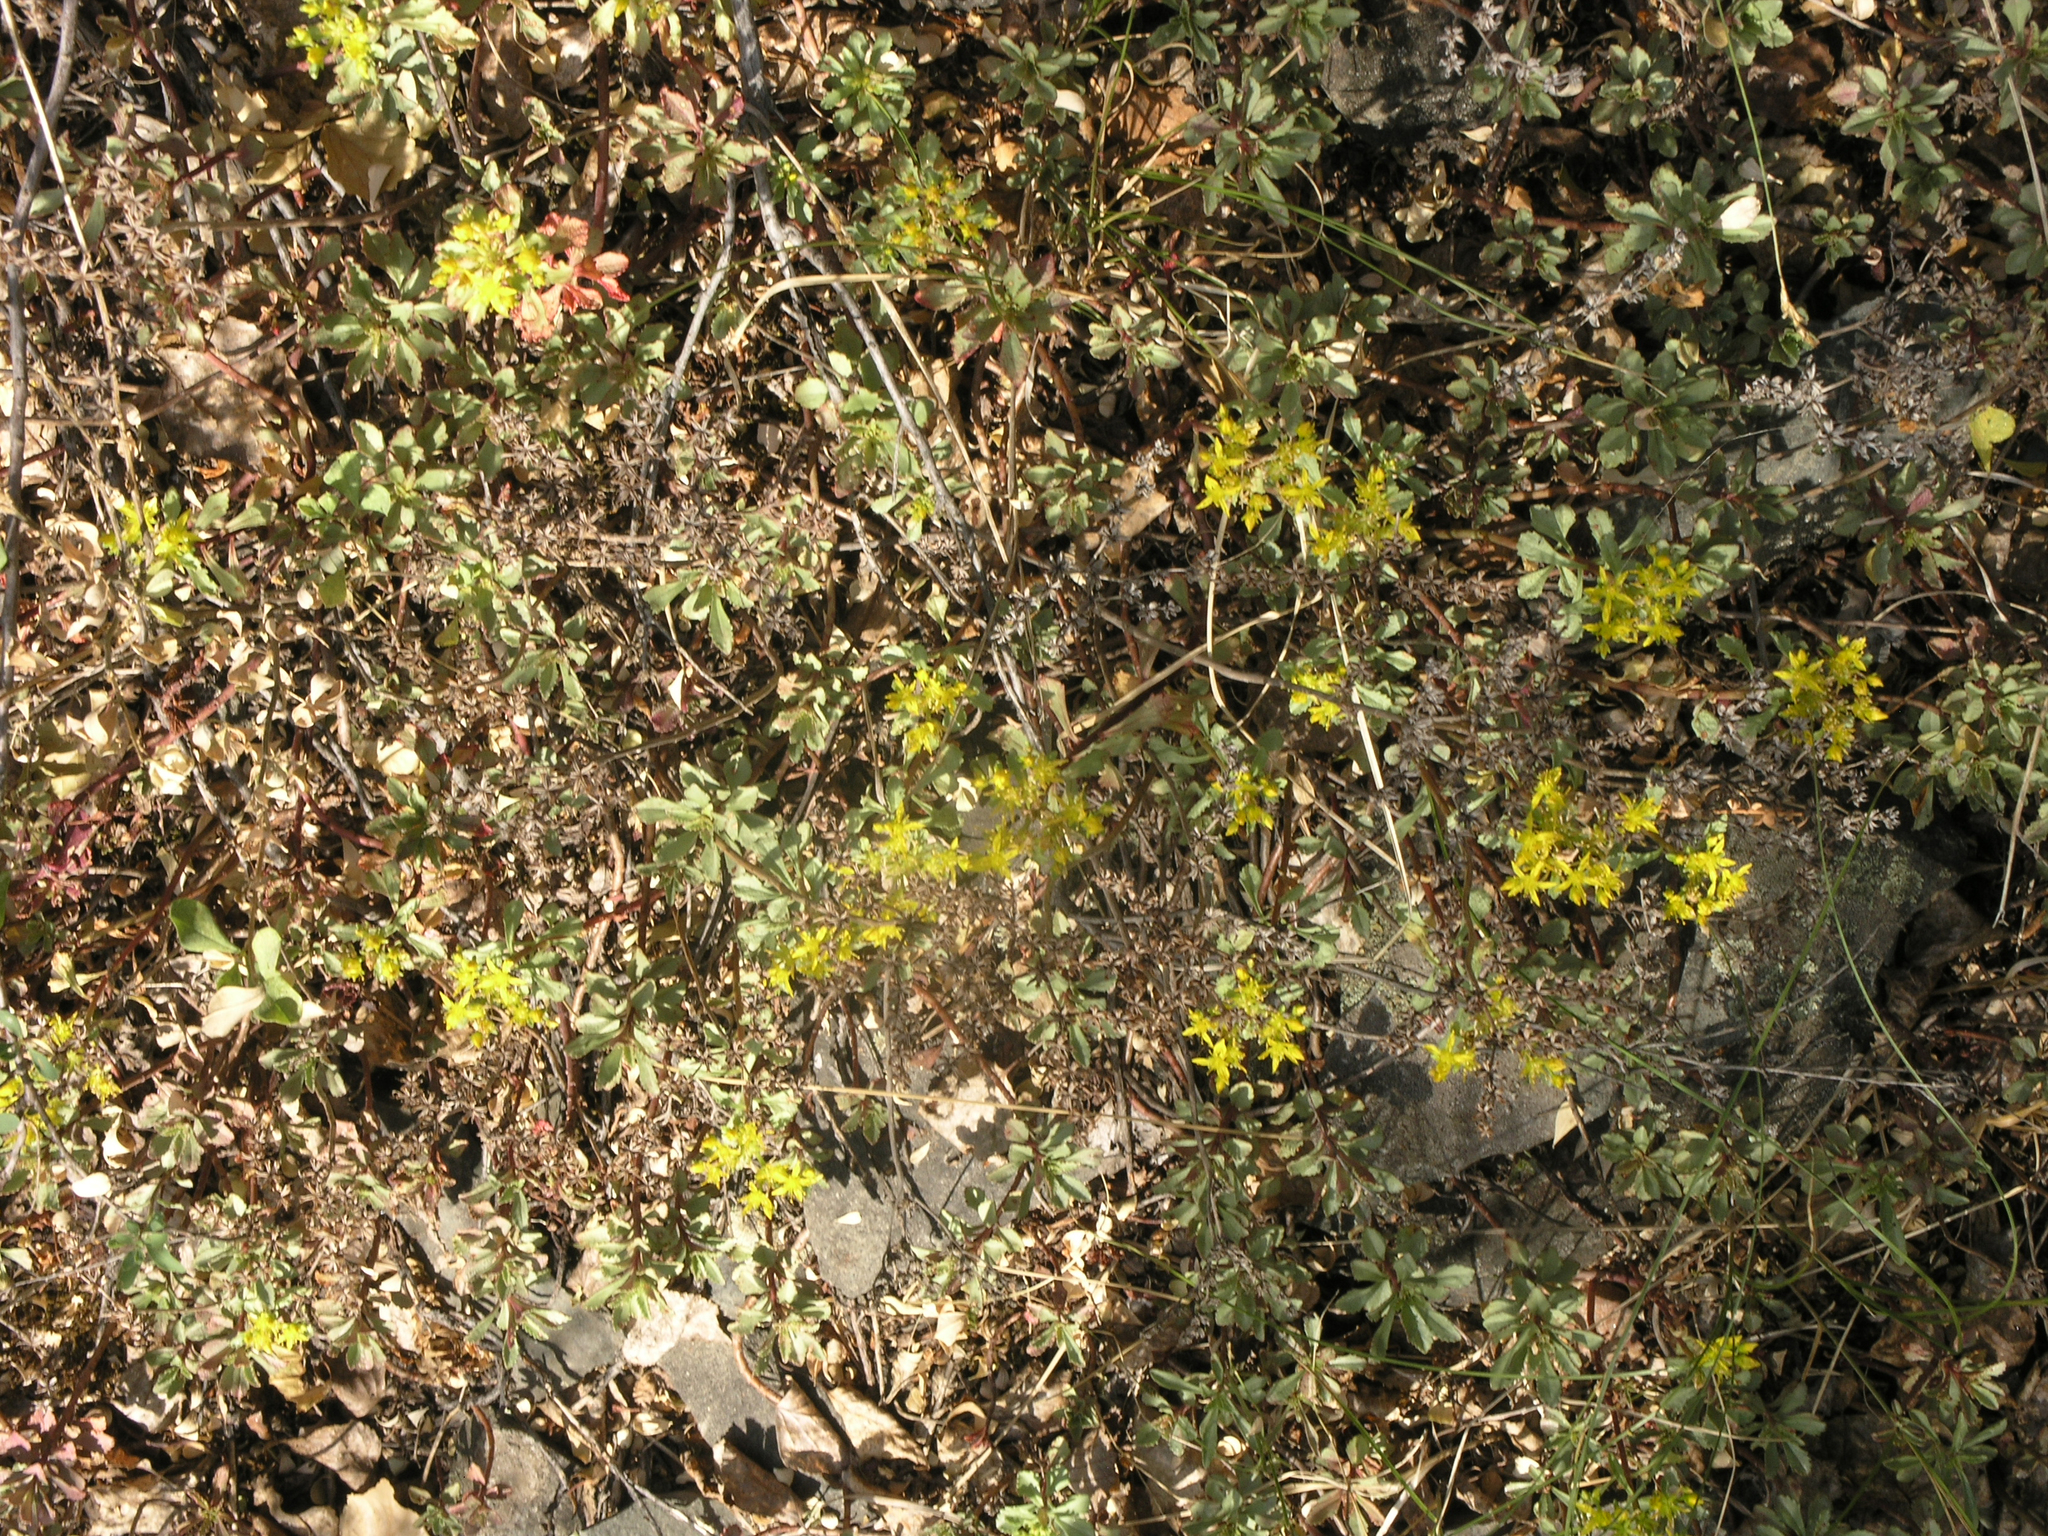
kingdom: Plantae
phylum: Tracheophyta
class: Magnoliopsida
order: Saxifragales
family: Crassulaceae
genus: Phedimus
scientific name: Phedimus hybridus
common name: Hybrid stonecrop
